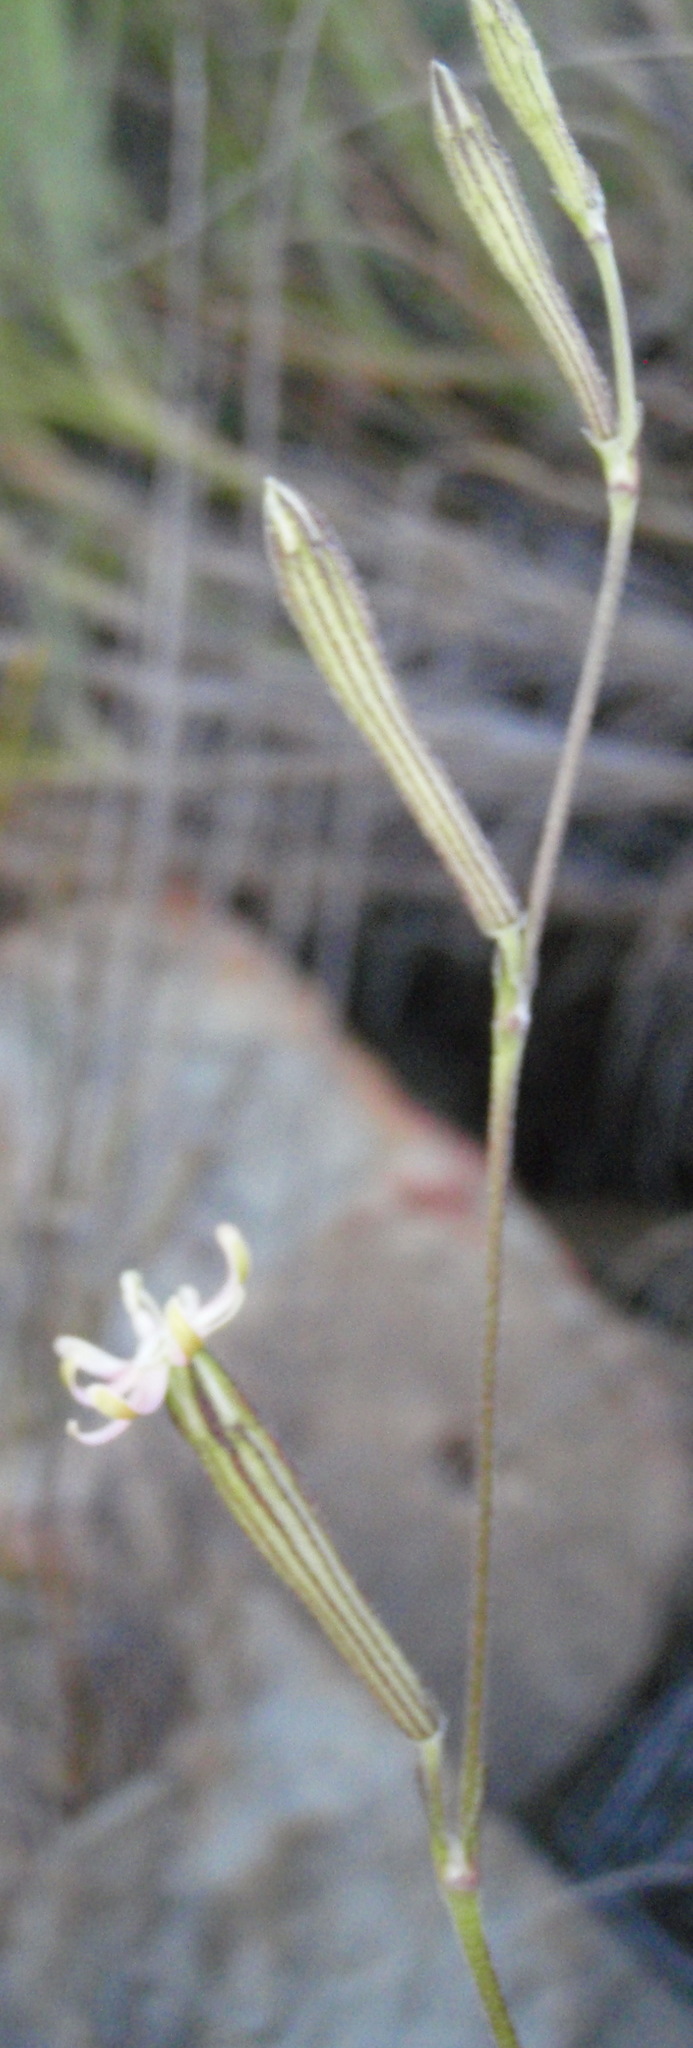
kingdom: Plantae
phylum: Tracheophyta
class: Magnoliopsida
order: Caryophyllales
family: Caryophyllaceae
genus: Silene
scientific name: Silene burchellii
